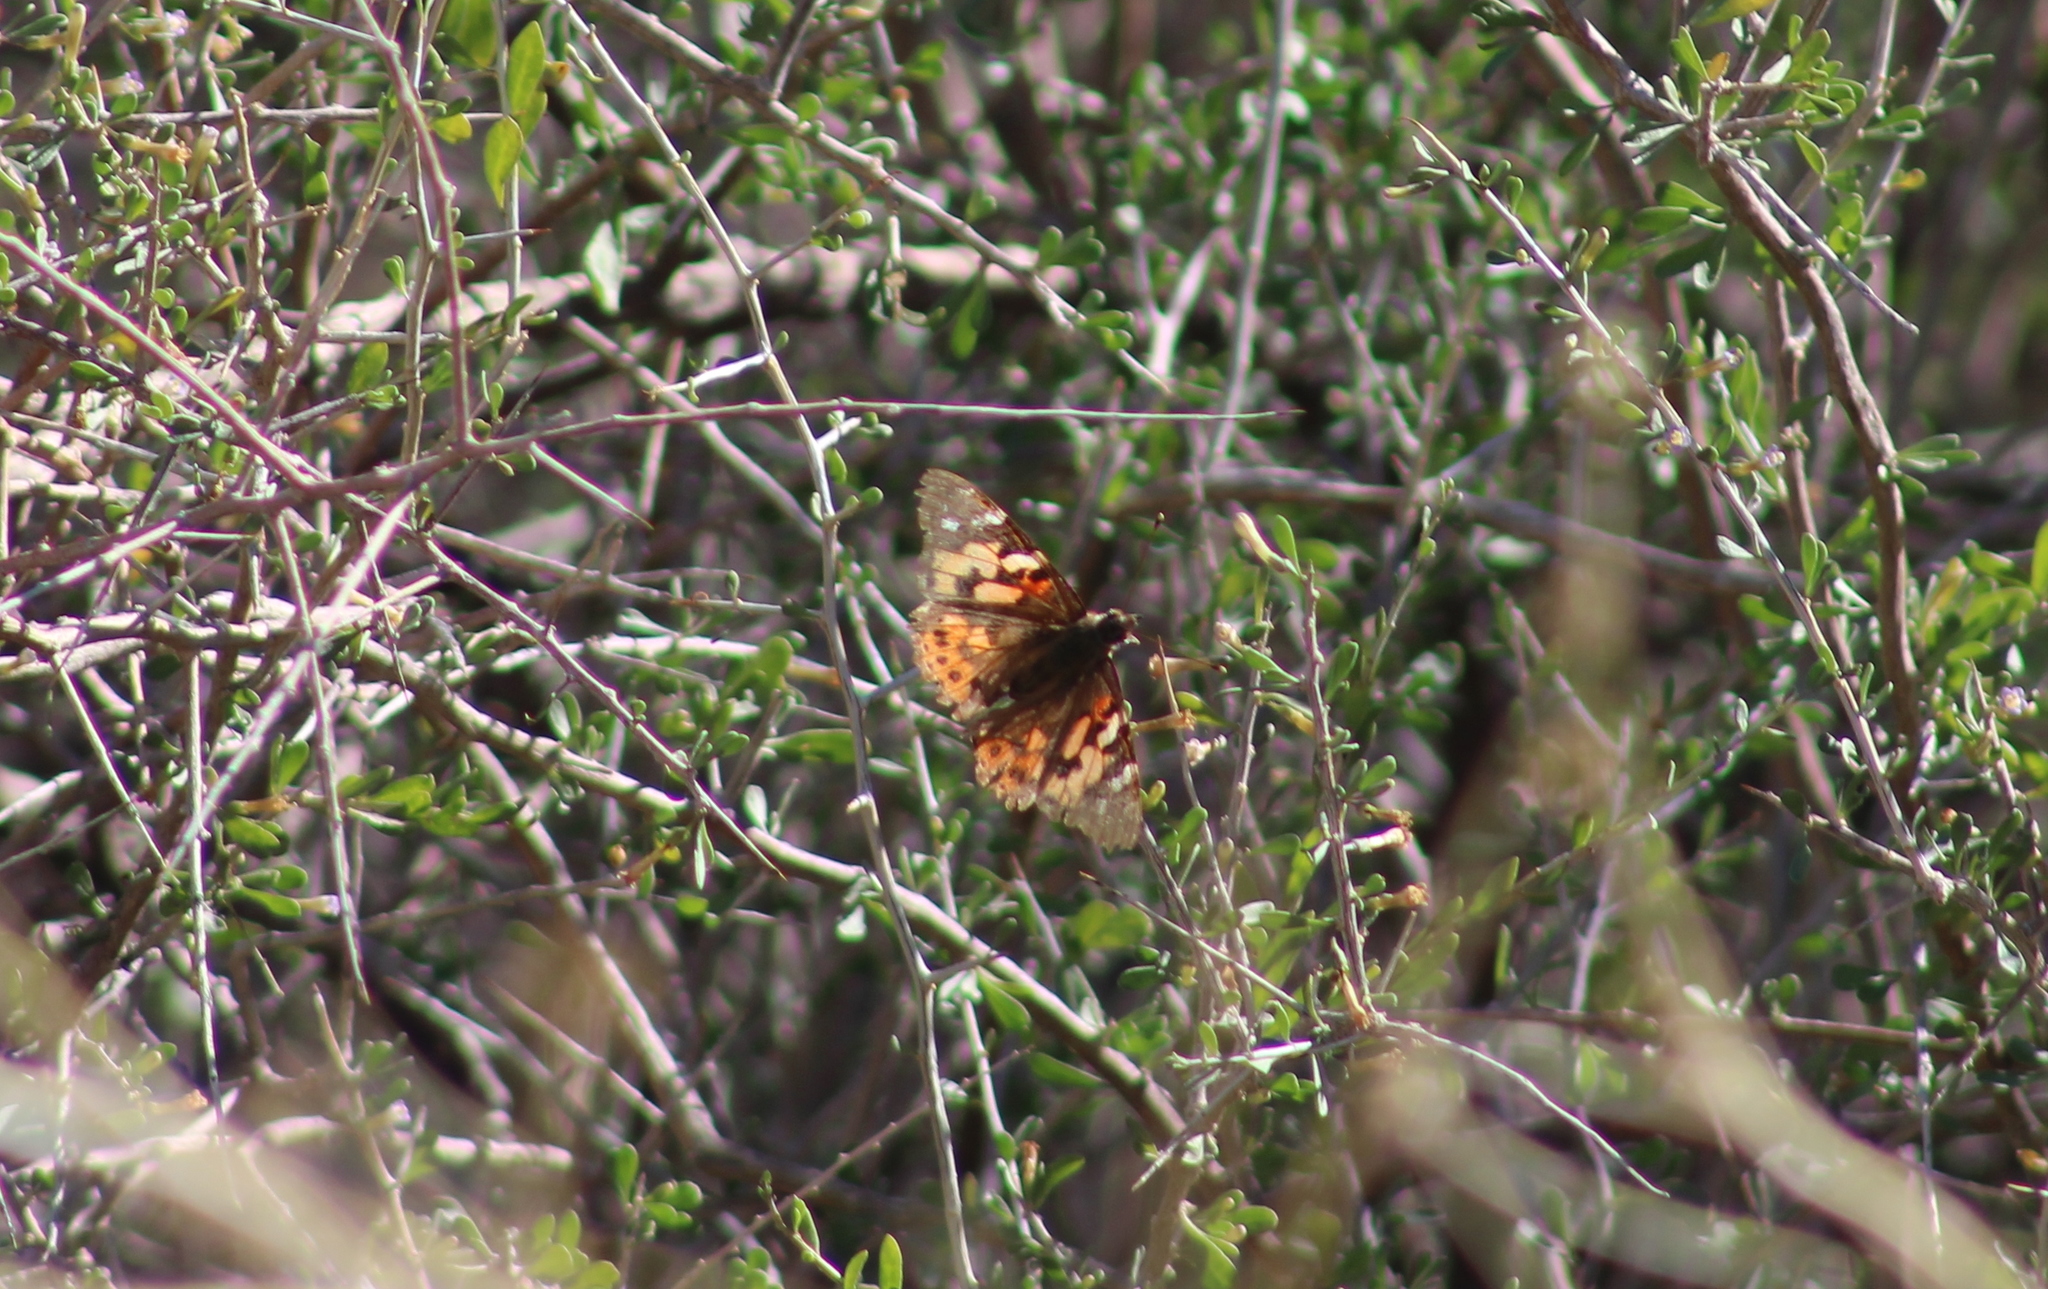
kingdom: Animalia
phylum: Arthropoda
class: Insecta
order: Lepidoptera
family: Nymphalidae
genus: Vanessa
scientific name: Vanessa cardui
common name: Painted lady
